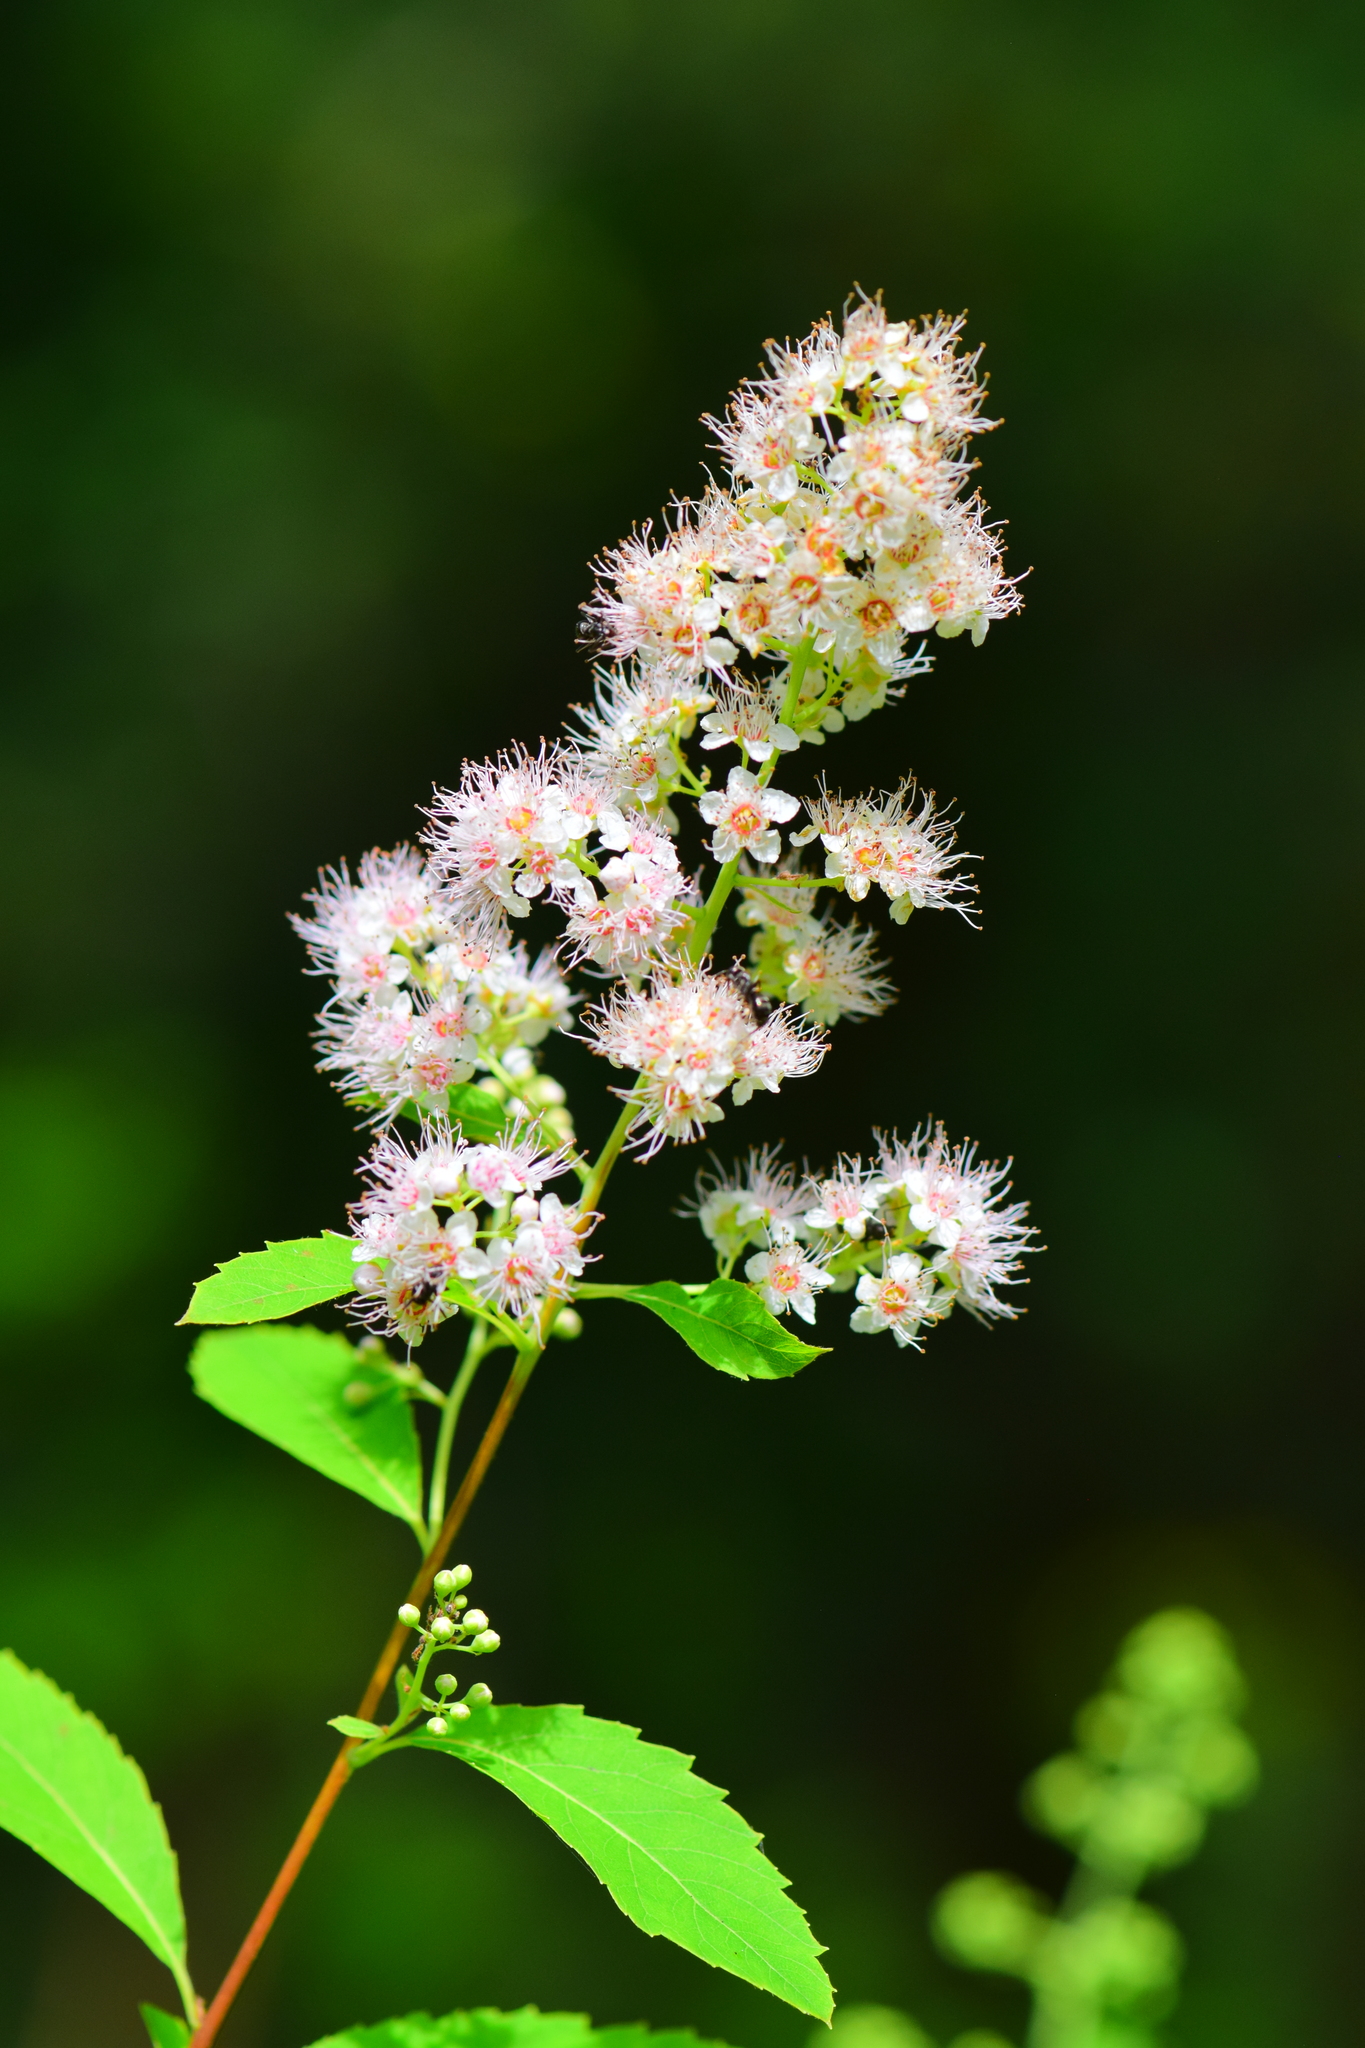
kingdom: Plantae
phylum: Tracheophyta
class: Magnoliopsida
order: Rosales
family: Rosaceae
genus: Spiraea
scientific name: Spiraea alba
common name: Pale bridewort
